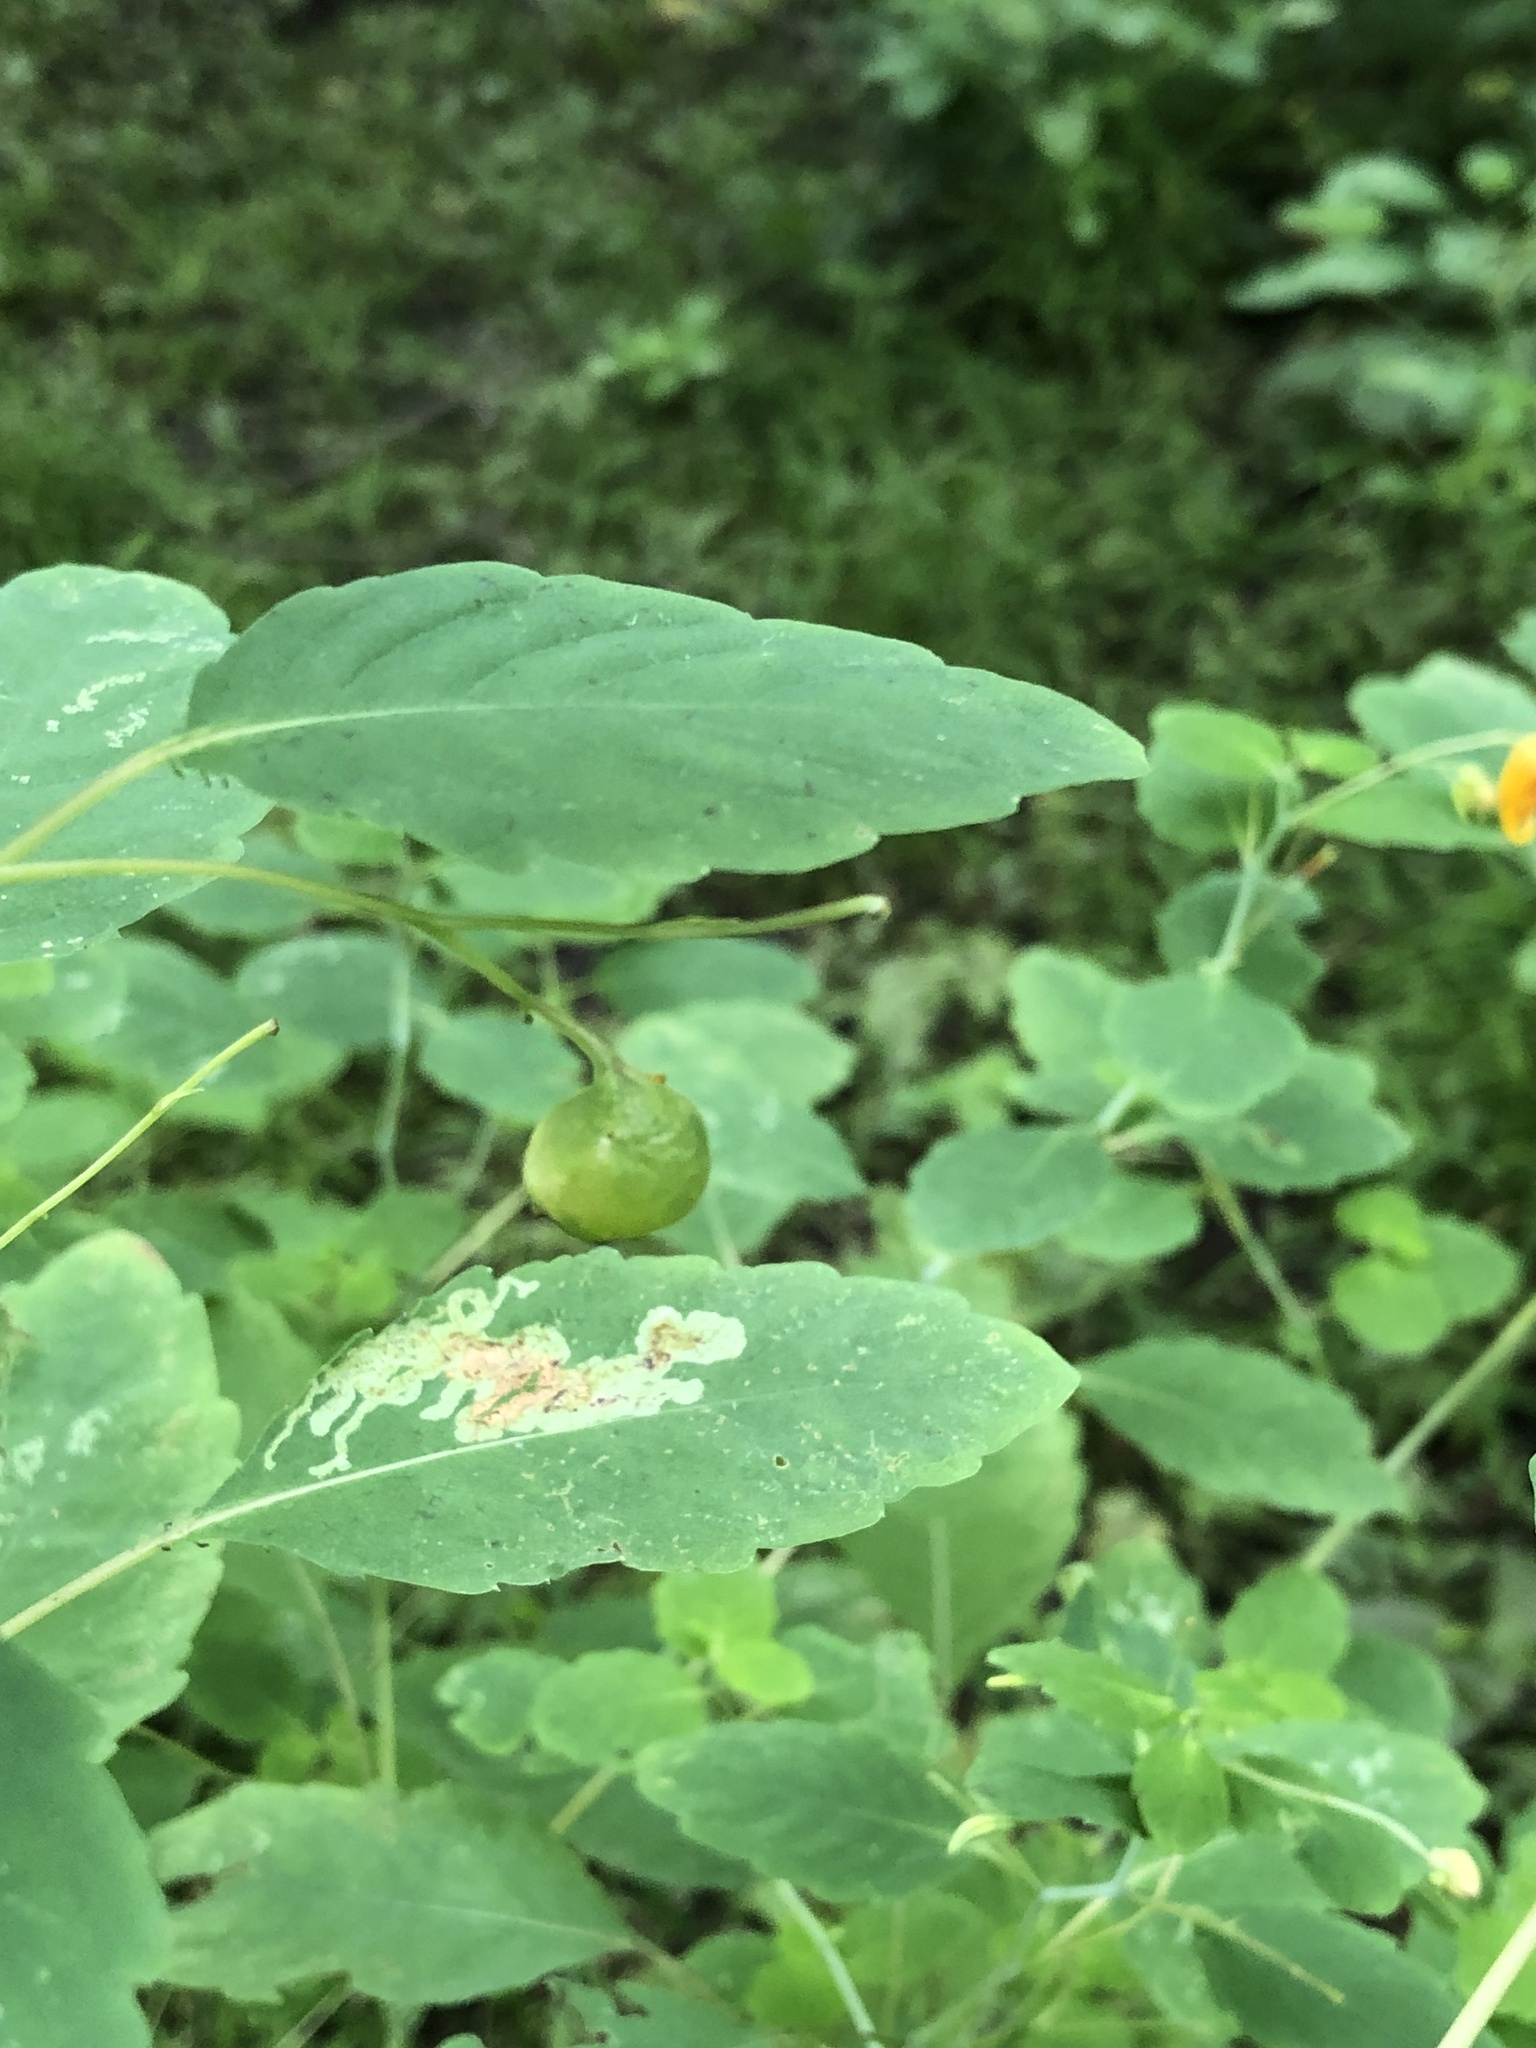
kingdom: Animalia
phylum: Arthropoda
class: Insecta
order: Diptera
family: Cecidomyiidae
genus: Schizomyia
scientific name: Schizomyia impatientis
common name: Jewelweed gall midge
